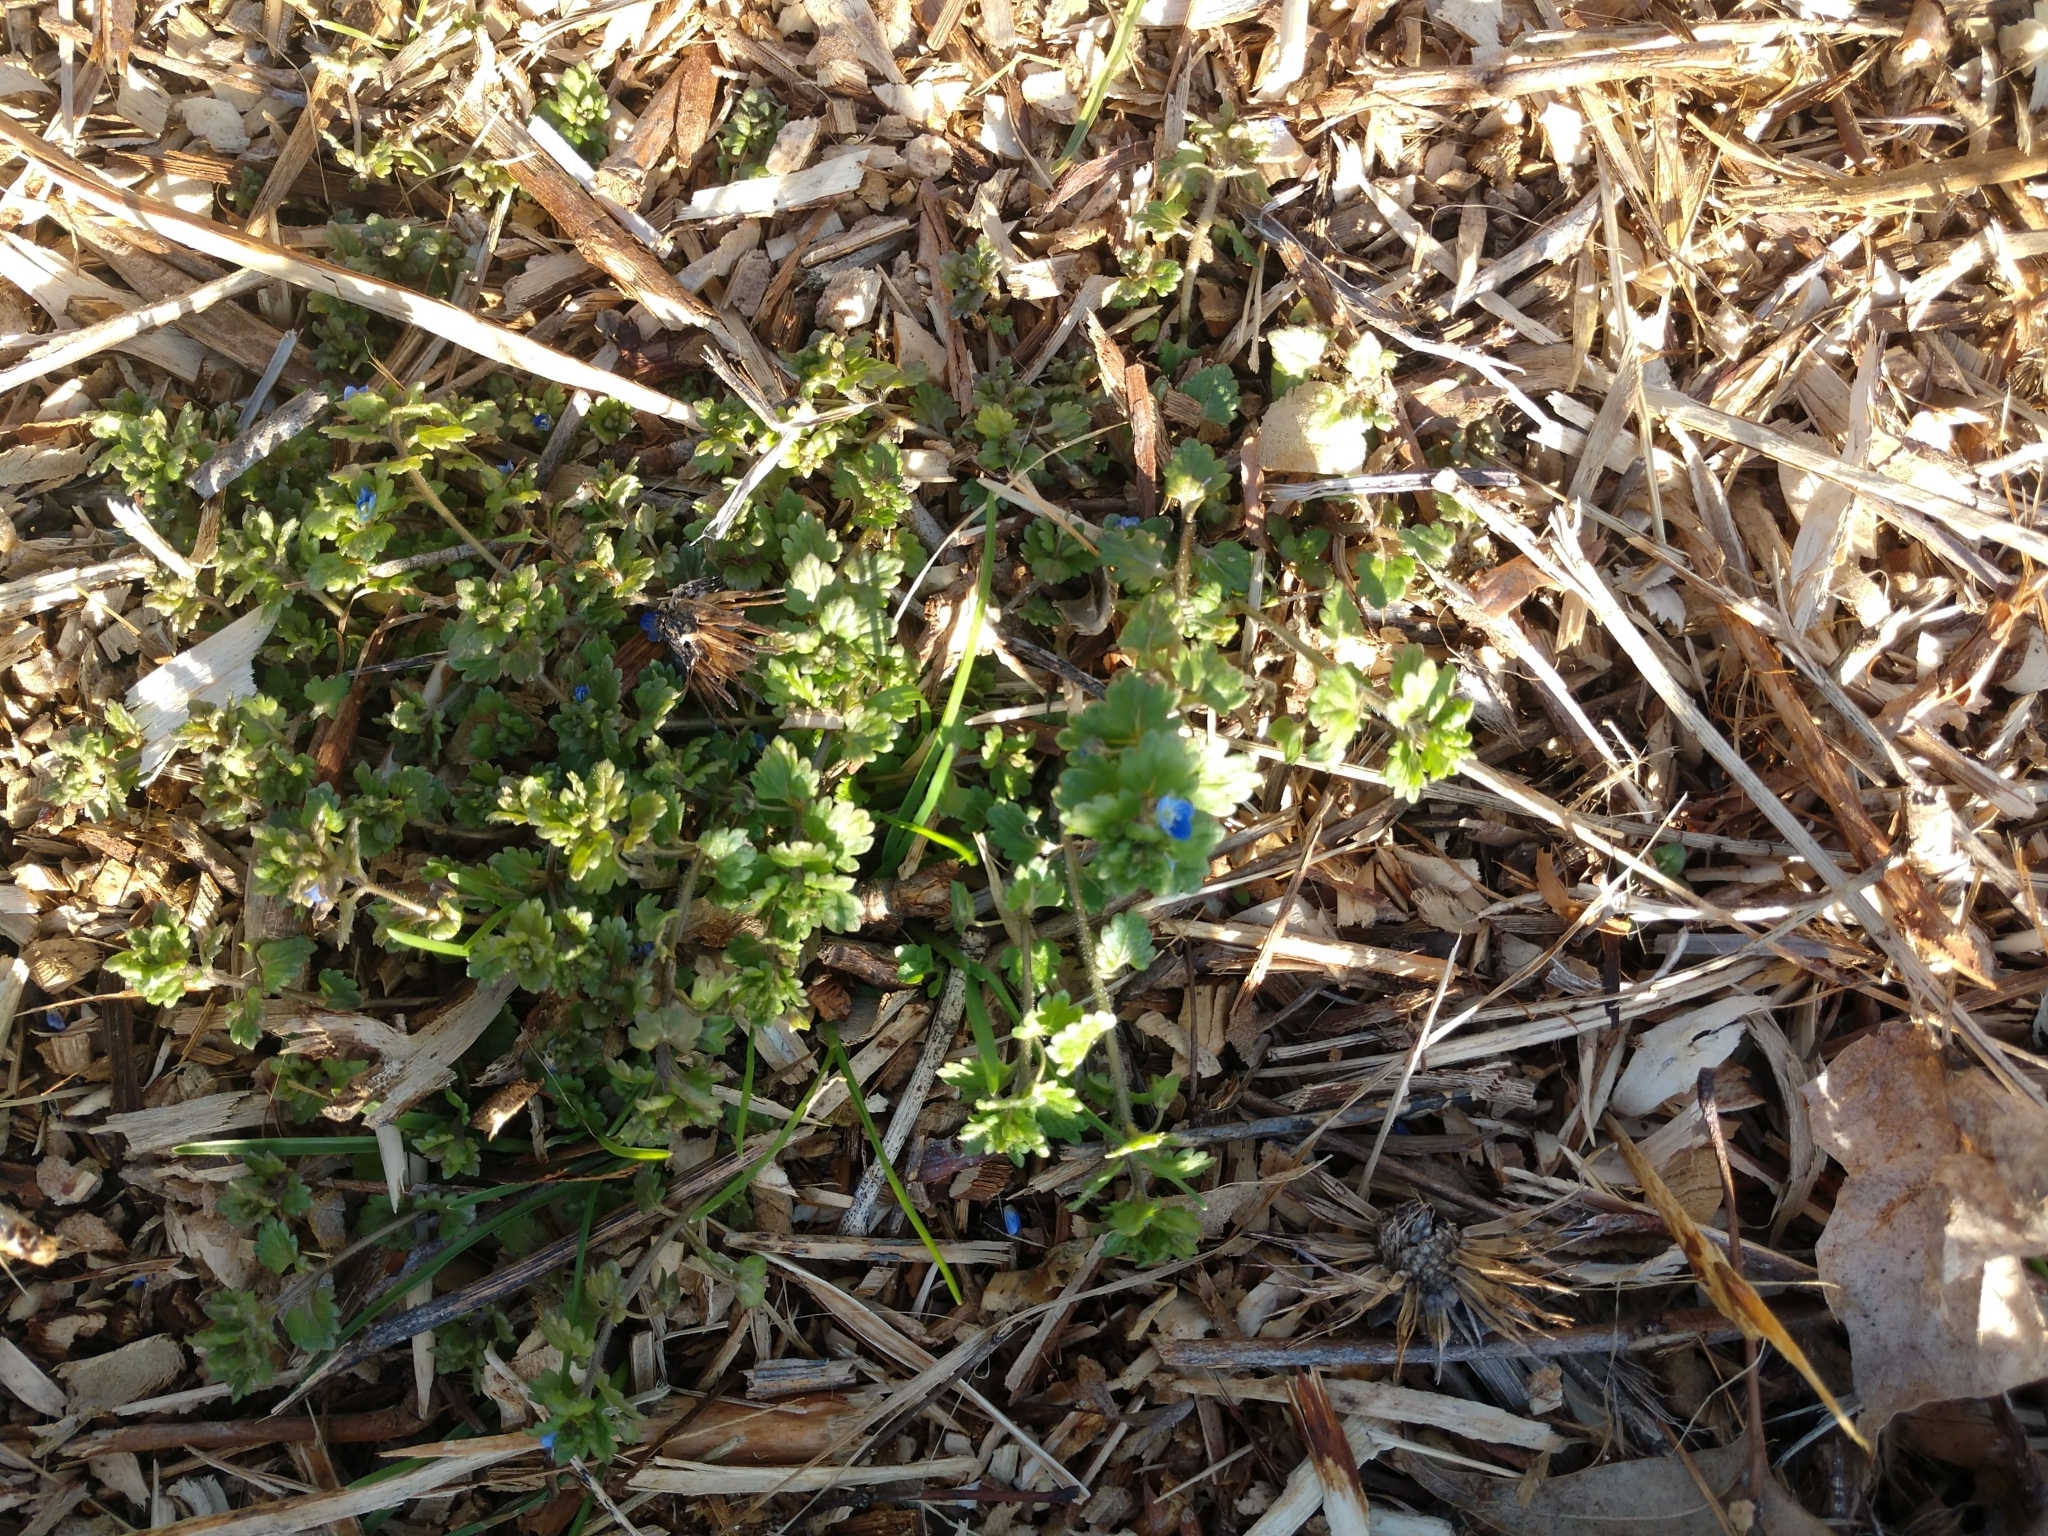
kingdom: Plantae
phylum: Tracheophyta
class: Magnoliopsida
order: Lamiales
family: Plantaginaceae
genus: Veronica
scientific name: Veronica polita
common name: Grey field-speedwell
